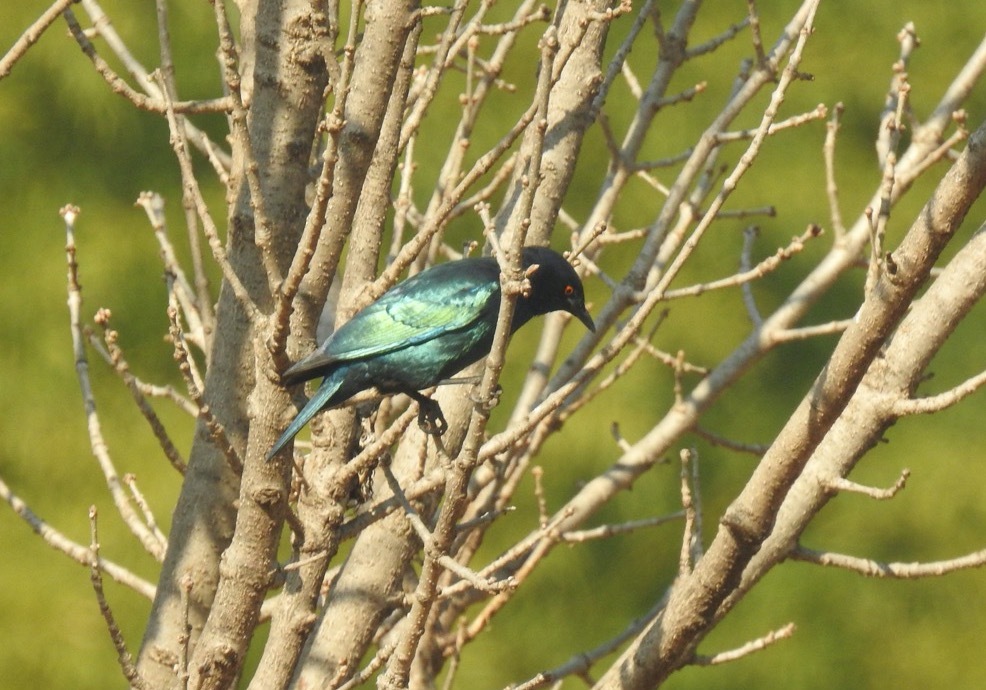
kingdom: Animalia
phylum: Chordata
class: Aves
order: Passeriformes
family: Sturnidae
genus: Lamprotornis
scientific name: Lamprotornis nitens
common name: Cape starling
